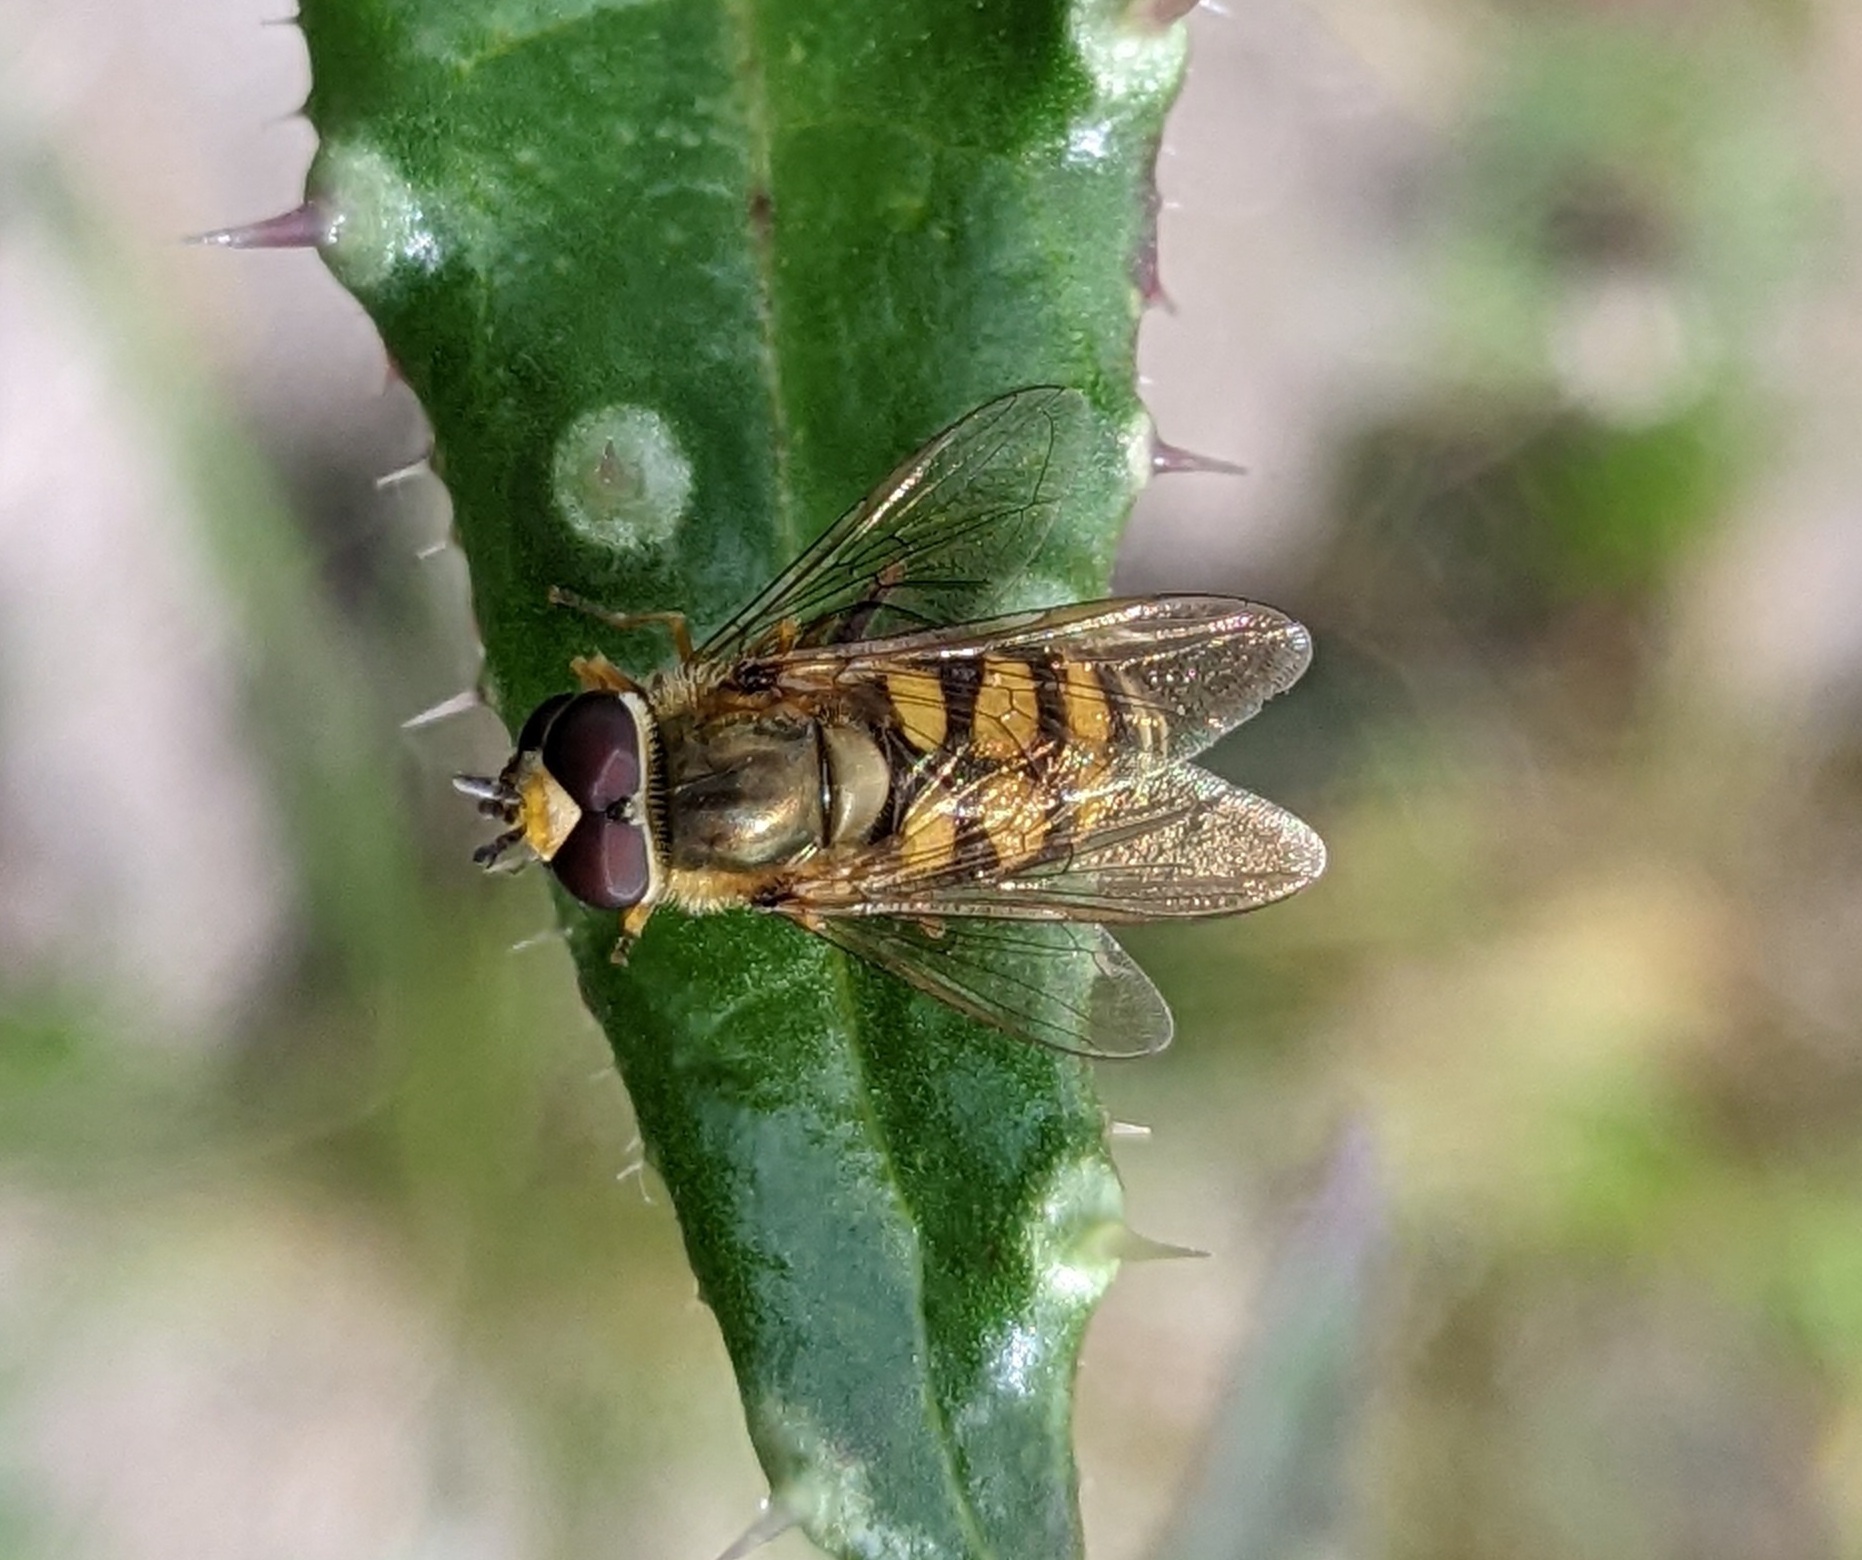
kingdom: Animalia
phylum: Arthropoda
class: Insecta
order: Diptera
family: Syrphidae
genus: Eupeodes
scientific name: Eupeodes
